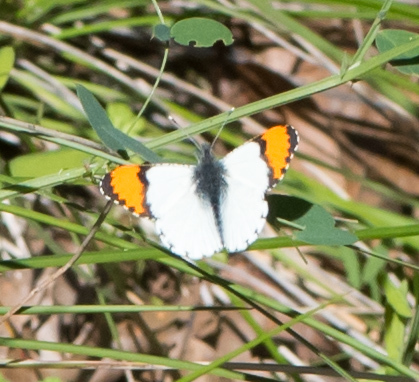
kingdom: Animalia
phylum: Arthropoda
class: Insecta
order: Lepidoptera
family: Pieridae
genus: Anthocharis
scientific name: Anthocharis sara
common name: Sara's orangetip
